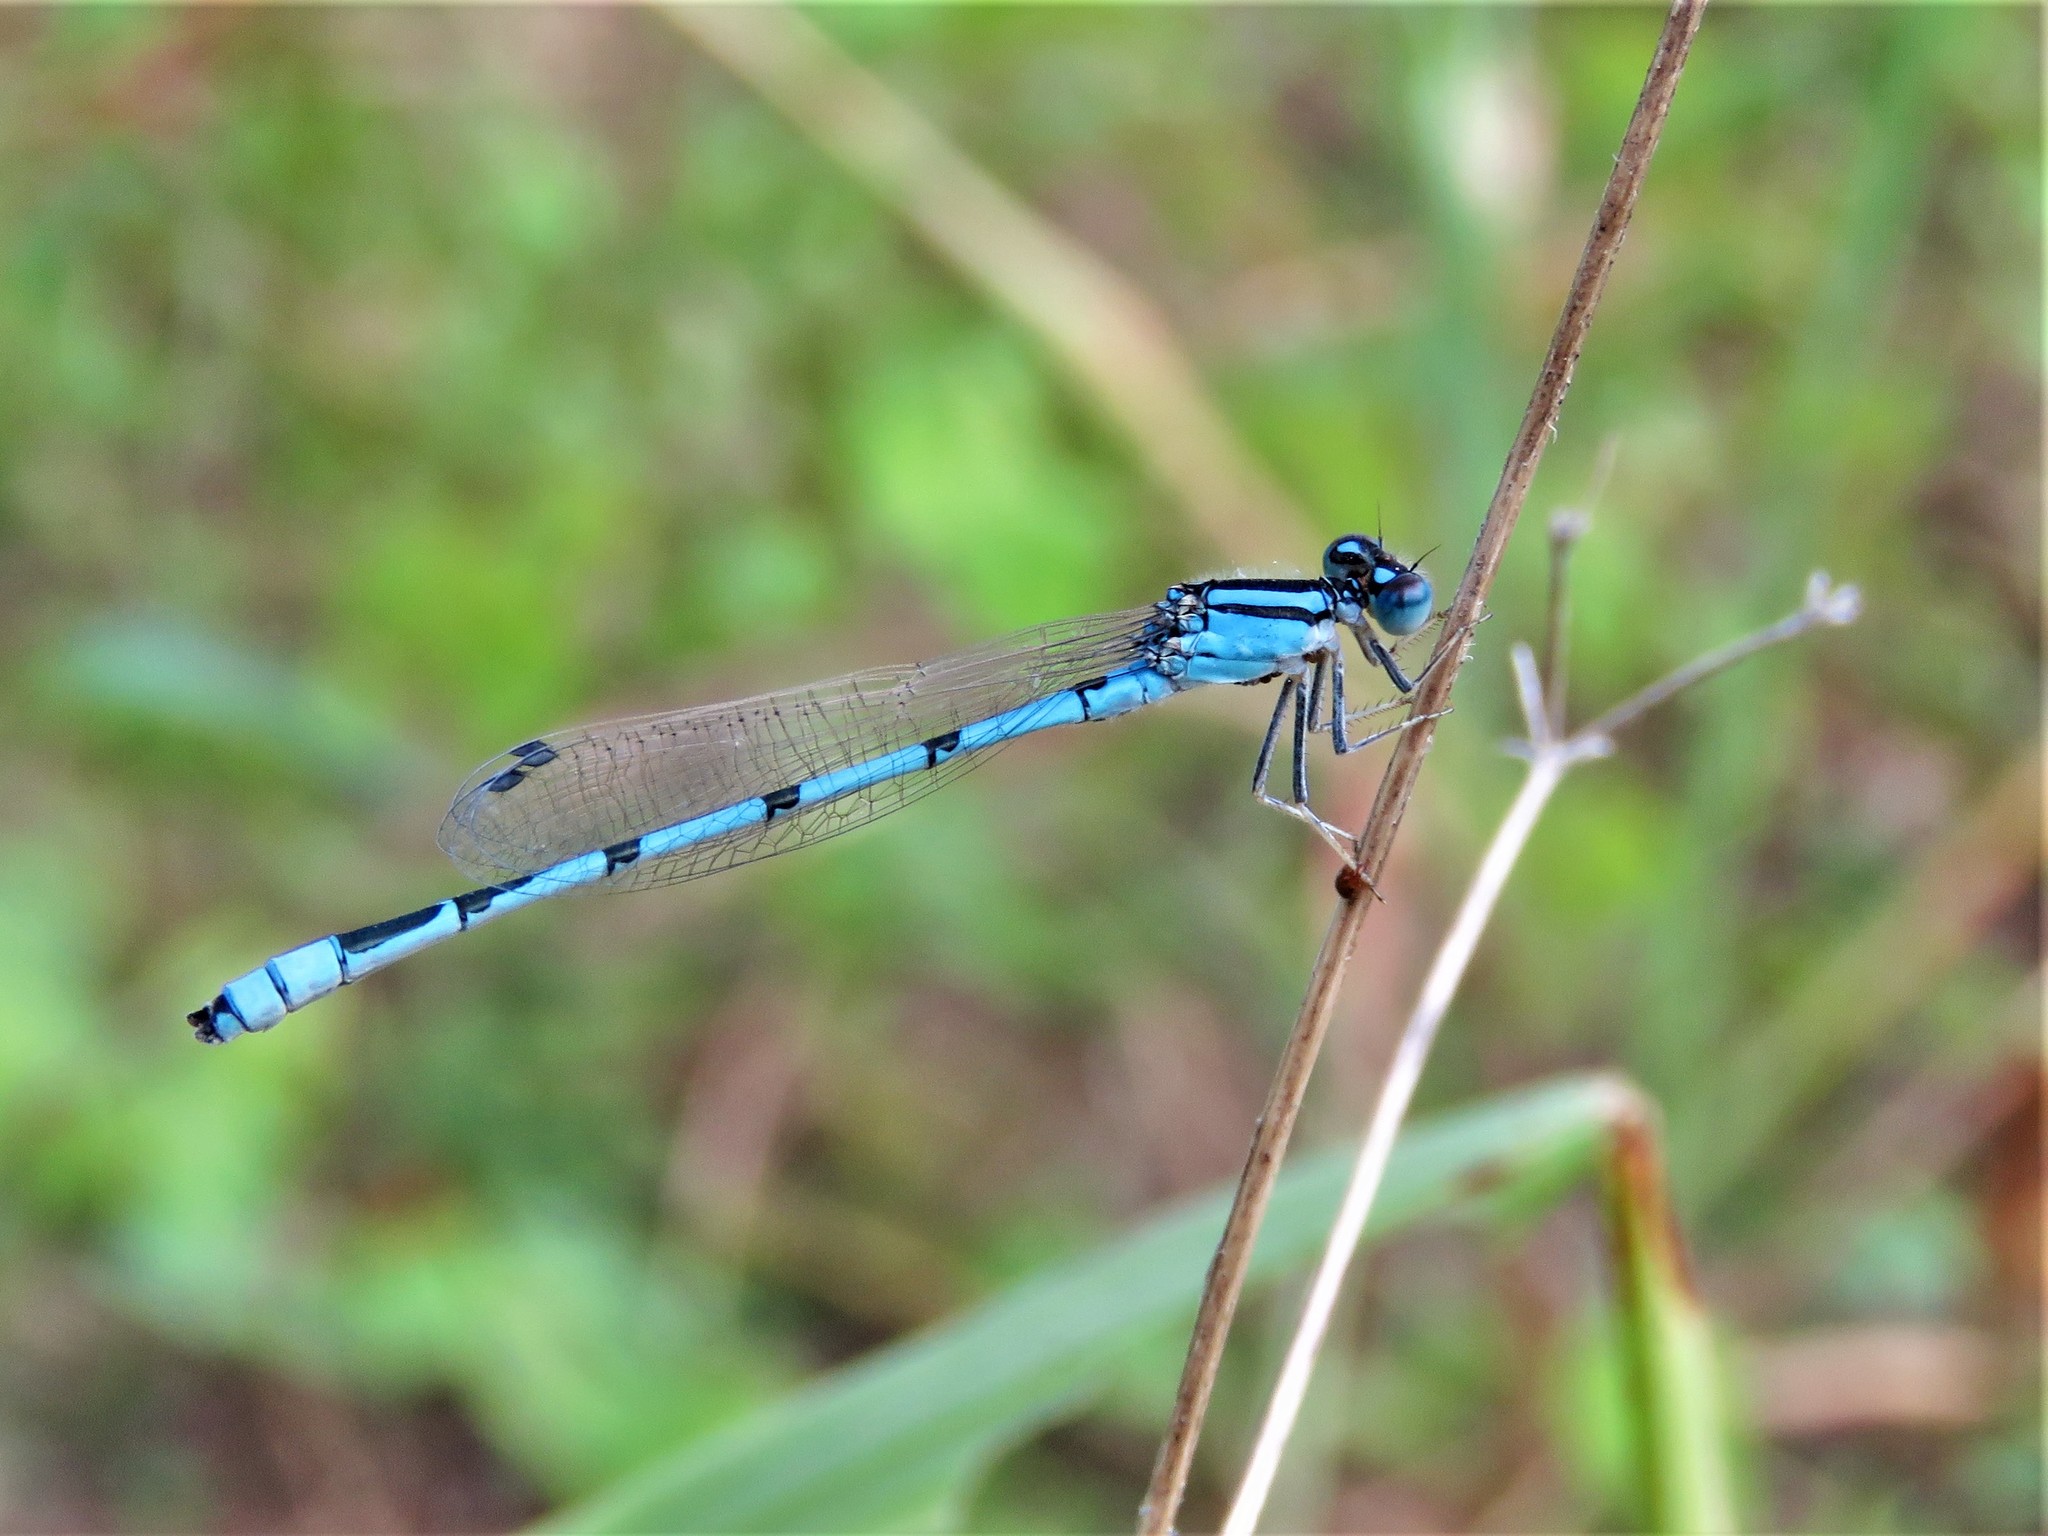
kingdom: Animalia
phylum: Arthropoda
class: Insecta
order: Odonata
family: Coenagrionidae
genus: Enallagma
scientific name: Enallagma civile
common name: Damselfly
